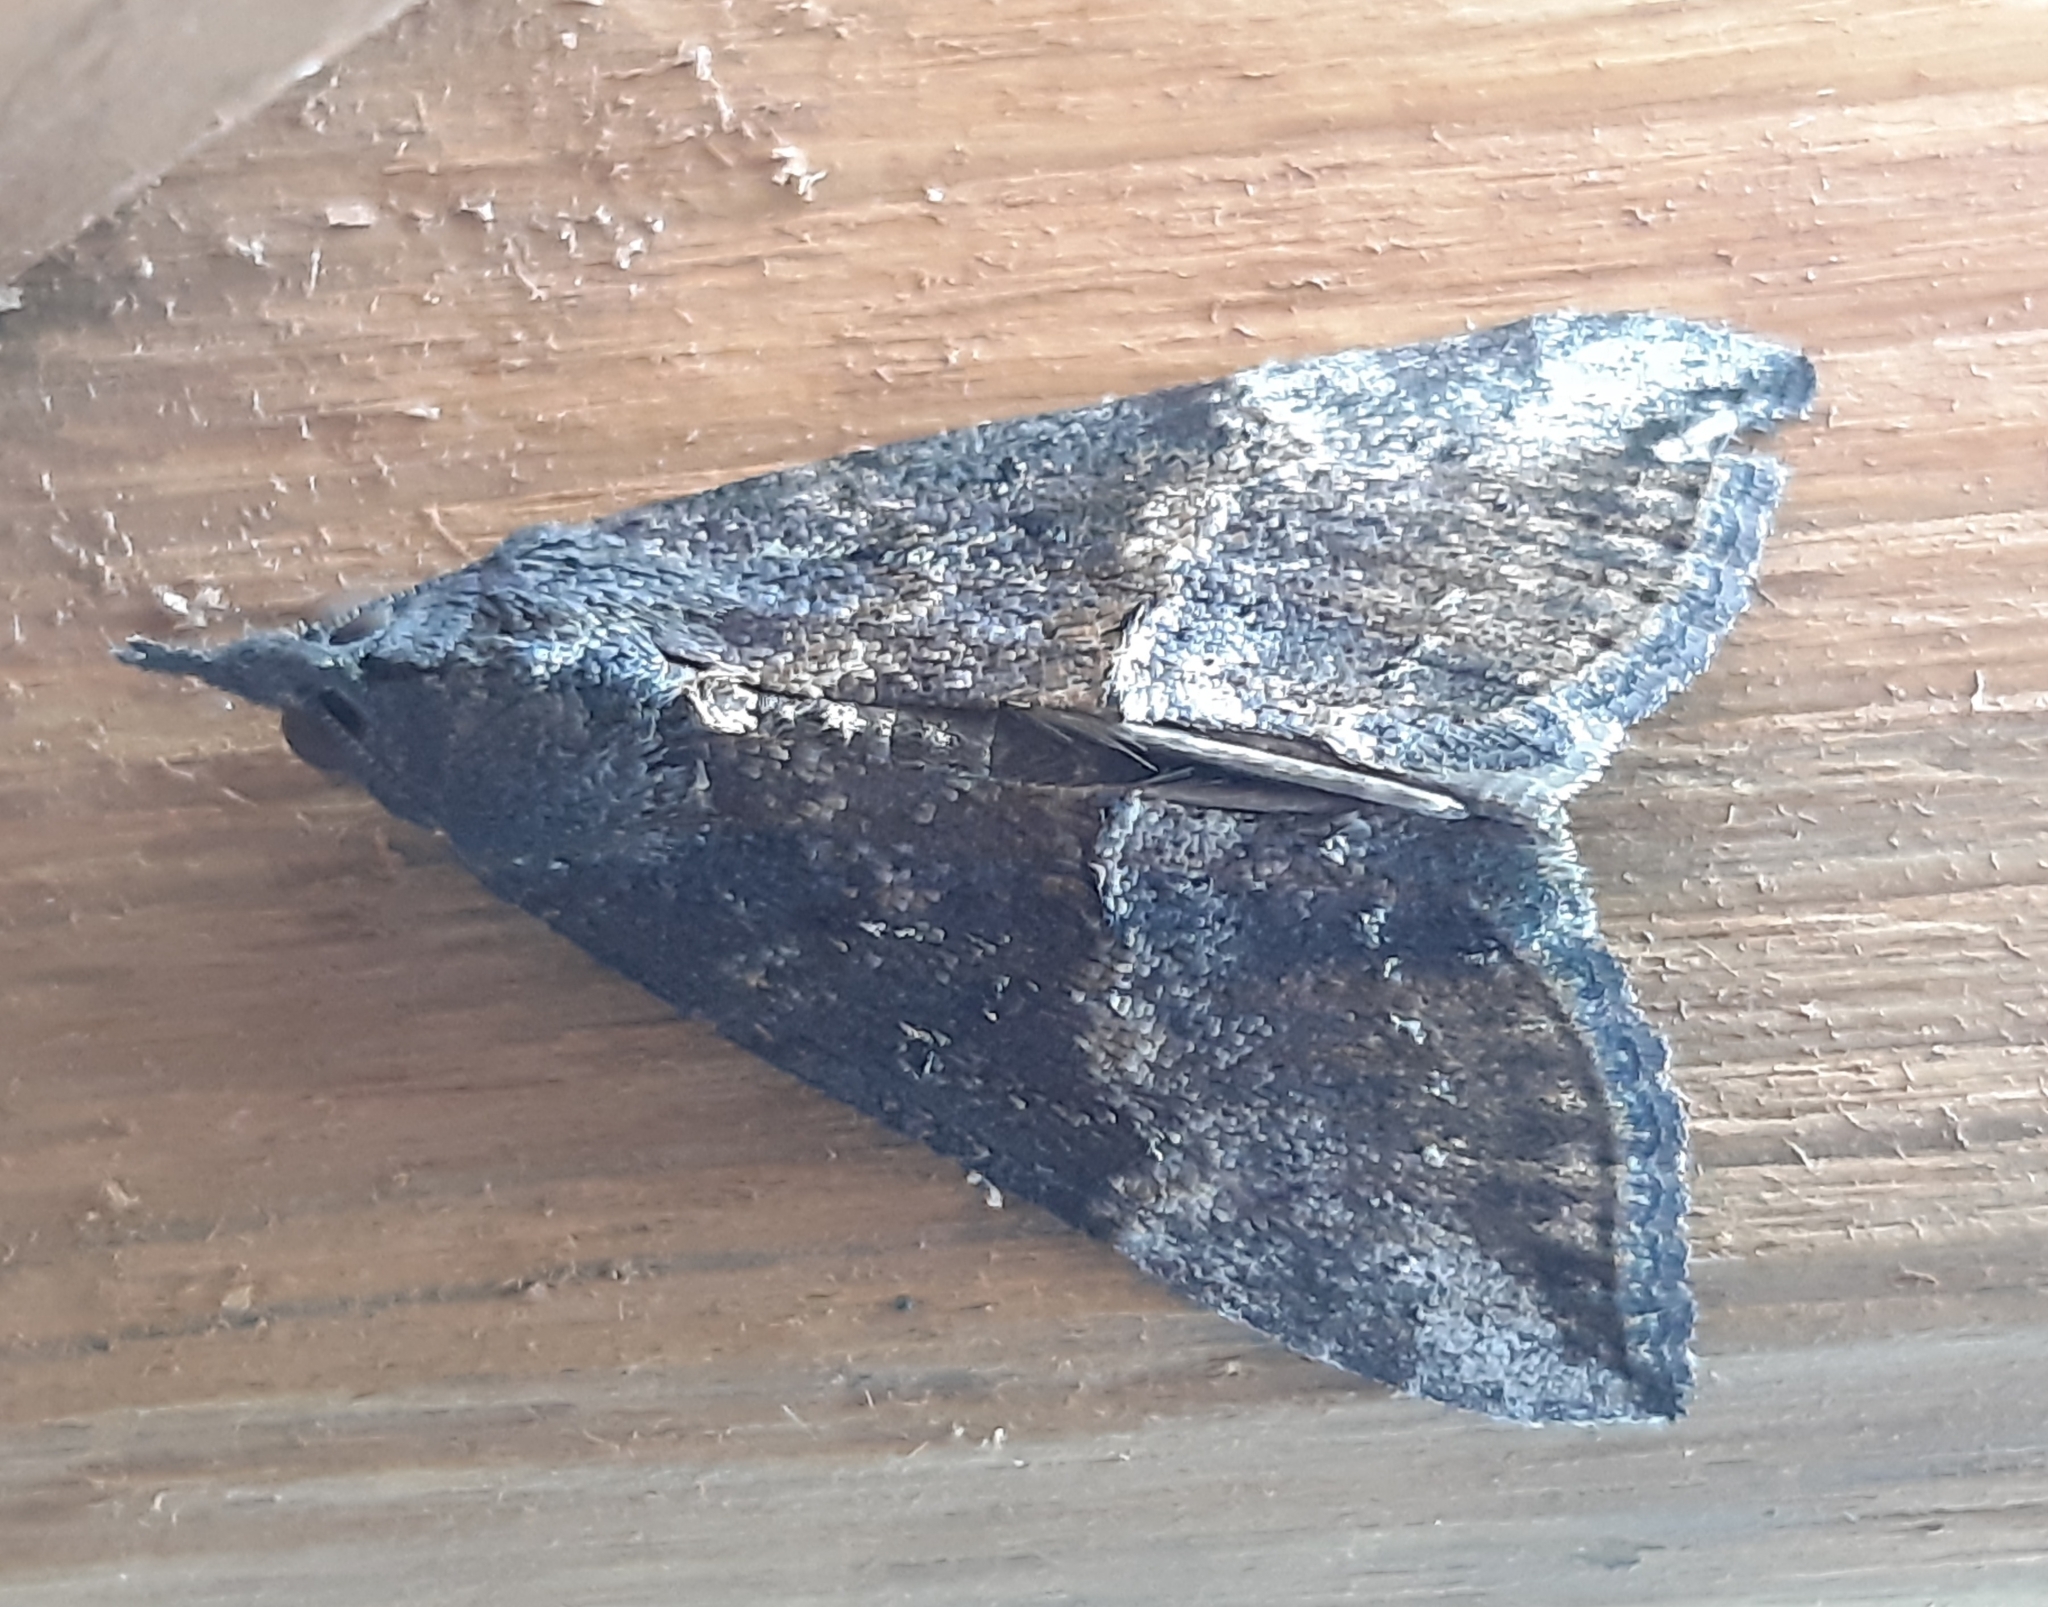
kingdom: Animalia
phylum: Arthropoda
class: Insecta
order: Lepidoptera
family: Erebidae
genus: Hypena
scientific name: Hypena scabra
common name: Green cloverworm
